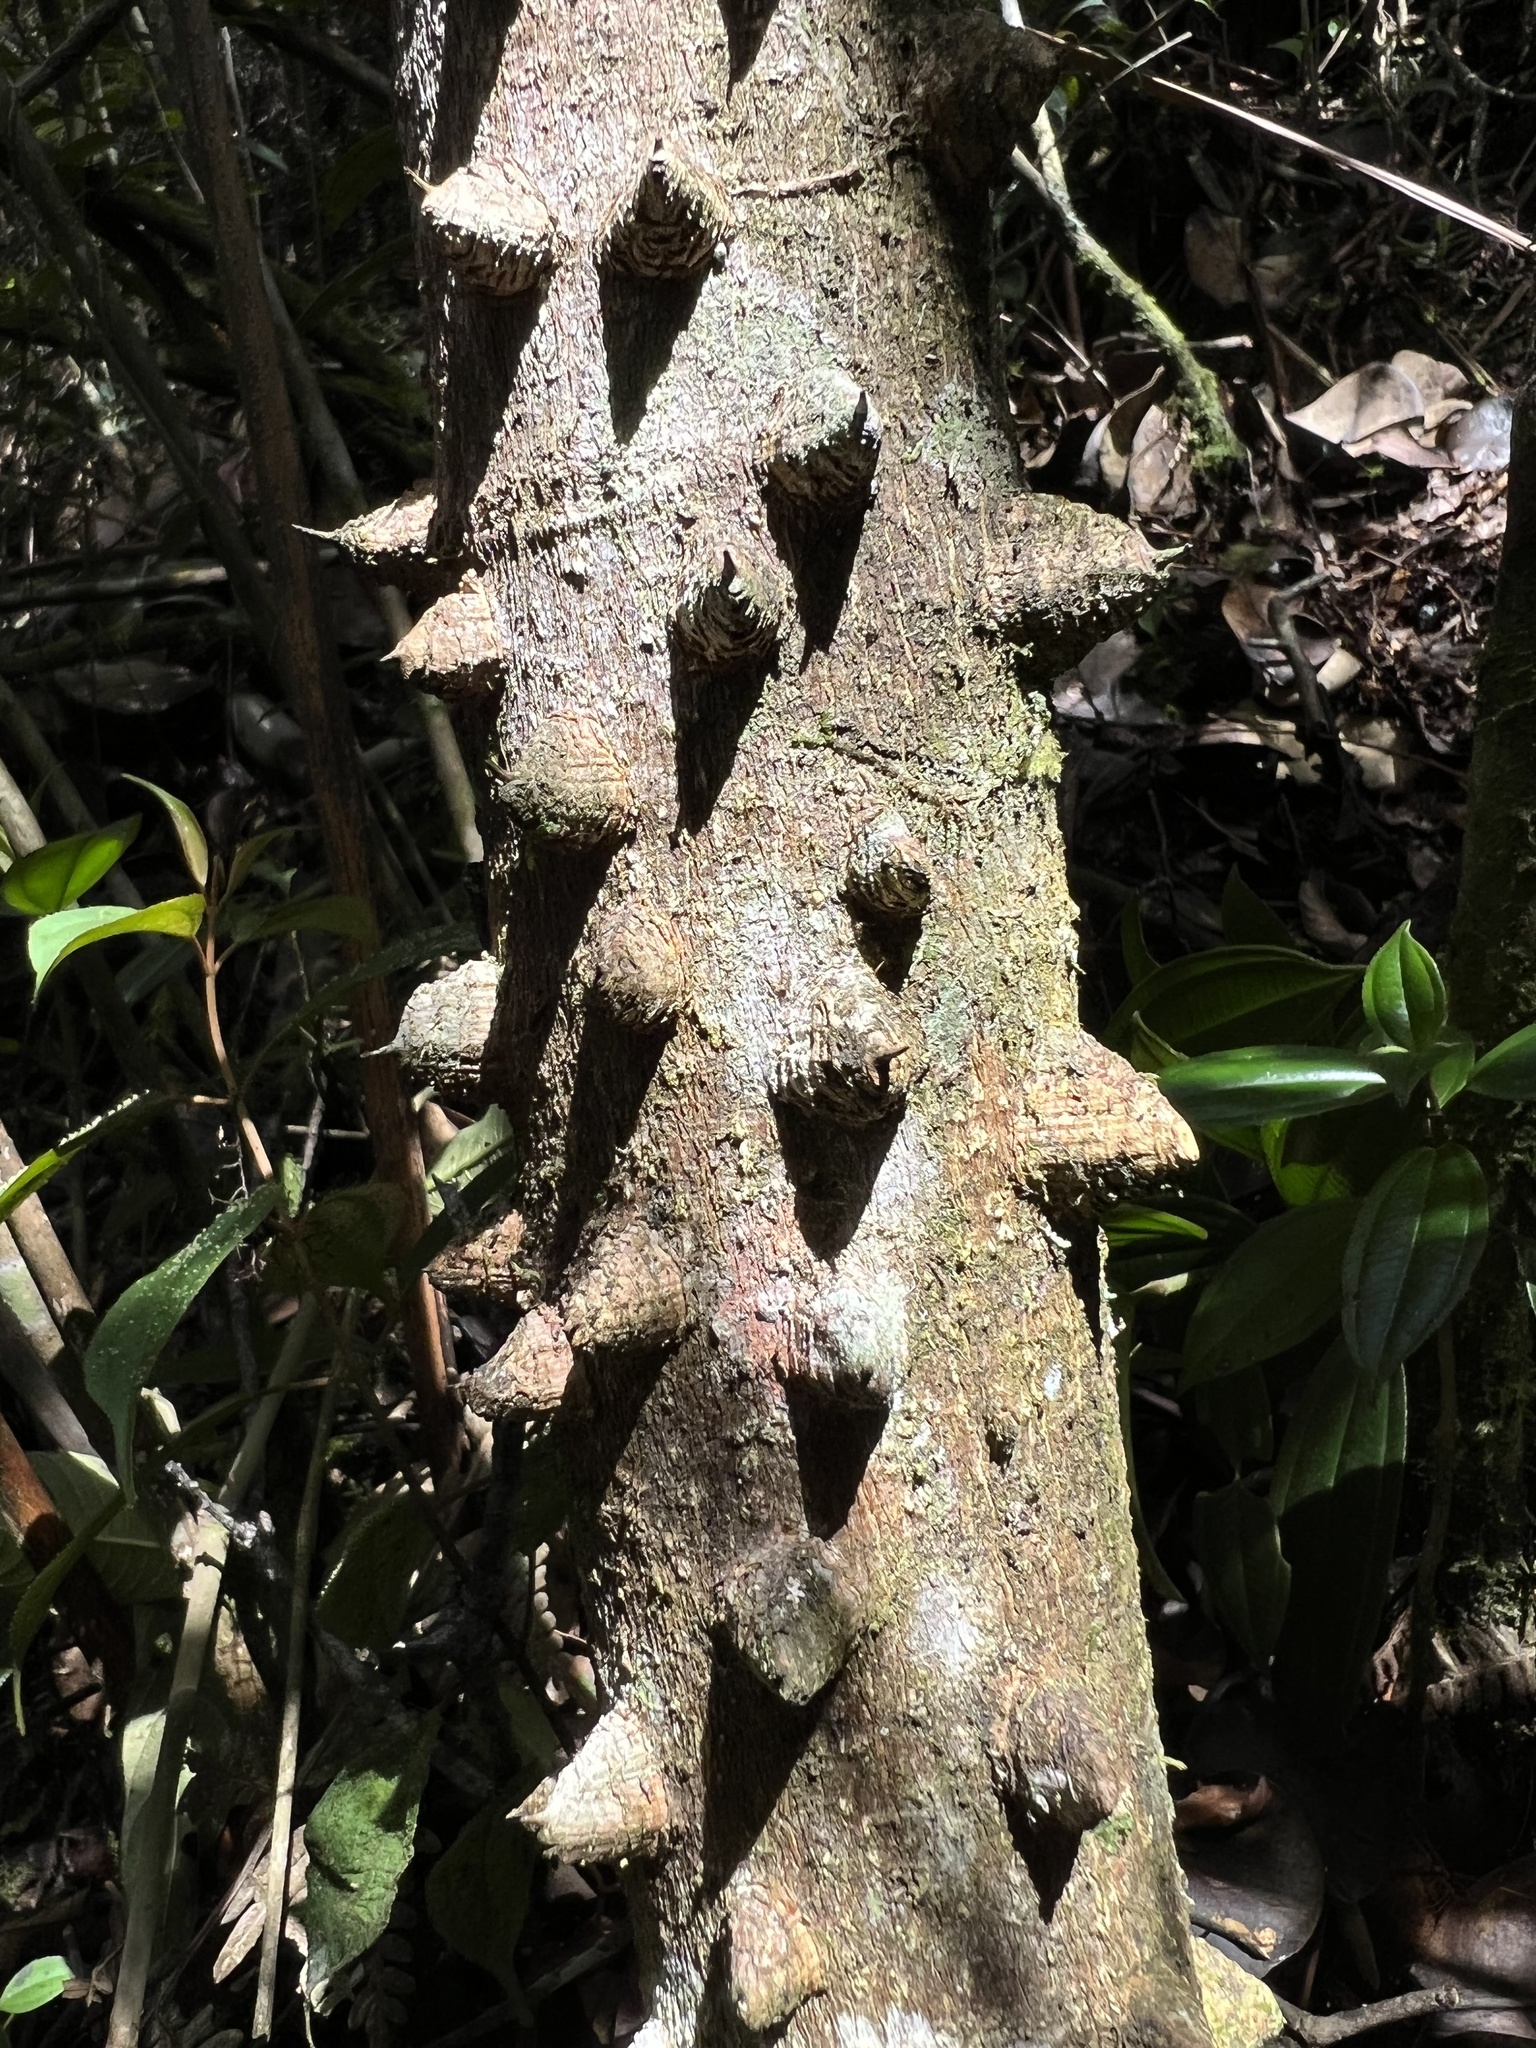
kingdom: Plantae
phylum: Tracheophyta
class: Magnoliopsida
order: Sapindales
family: Rutaceae
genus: Zanthoxylum
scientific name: Zanthoxylum quinduense
